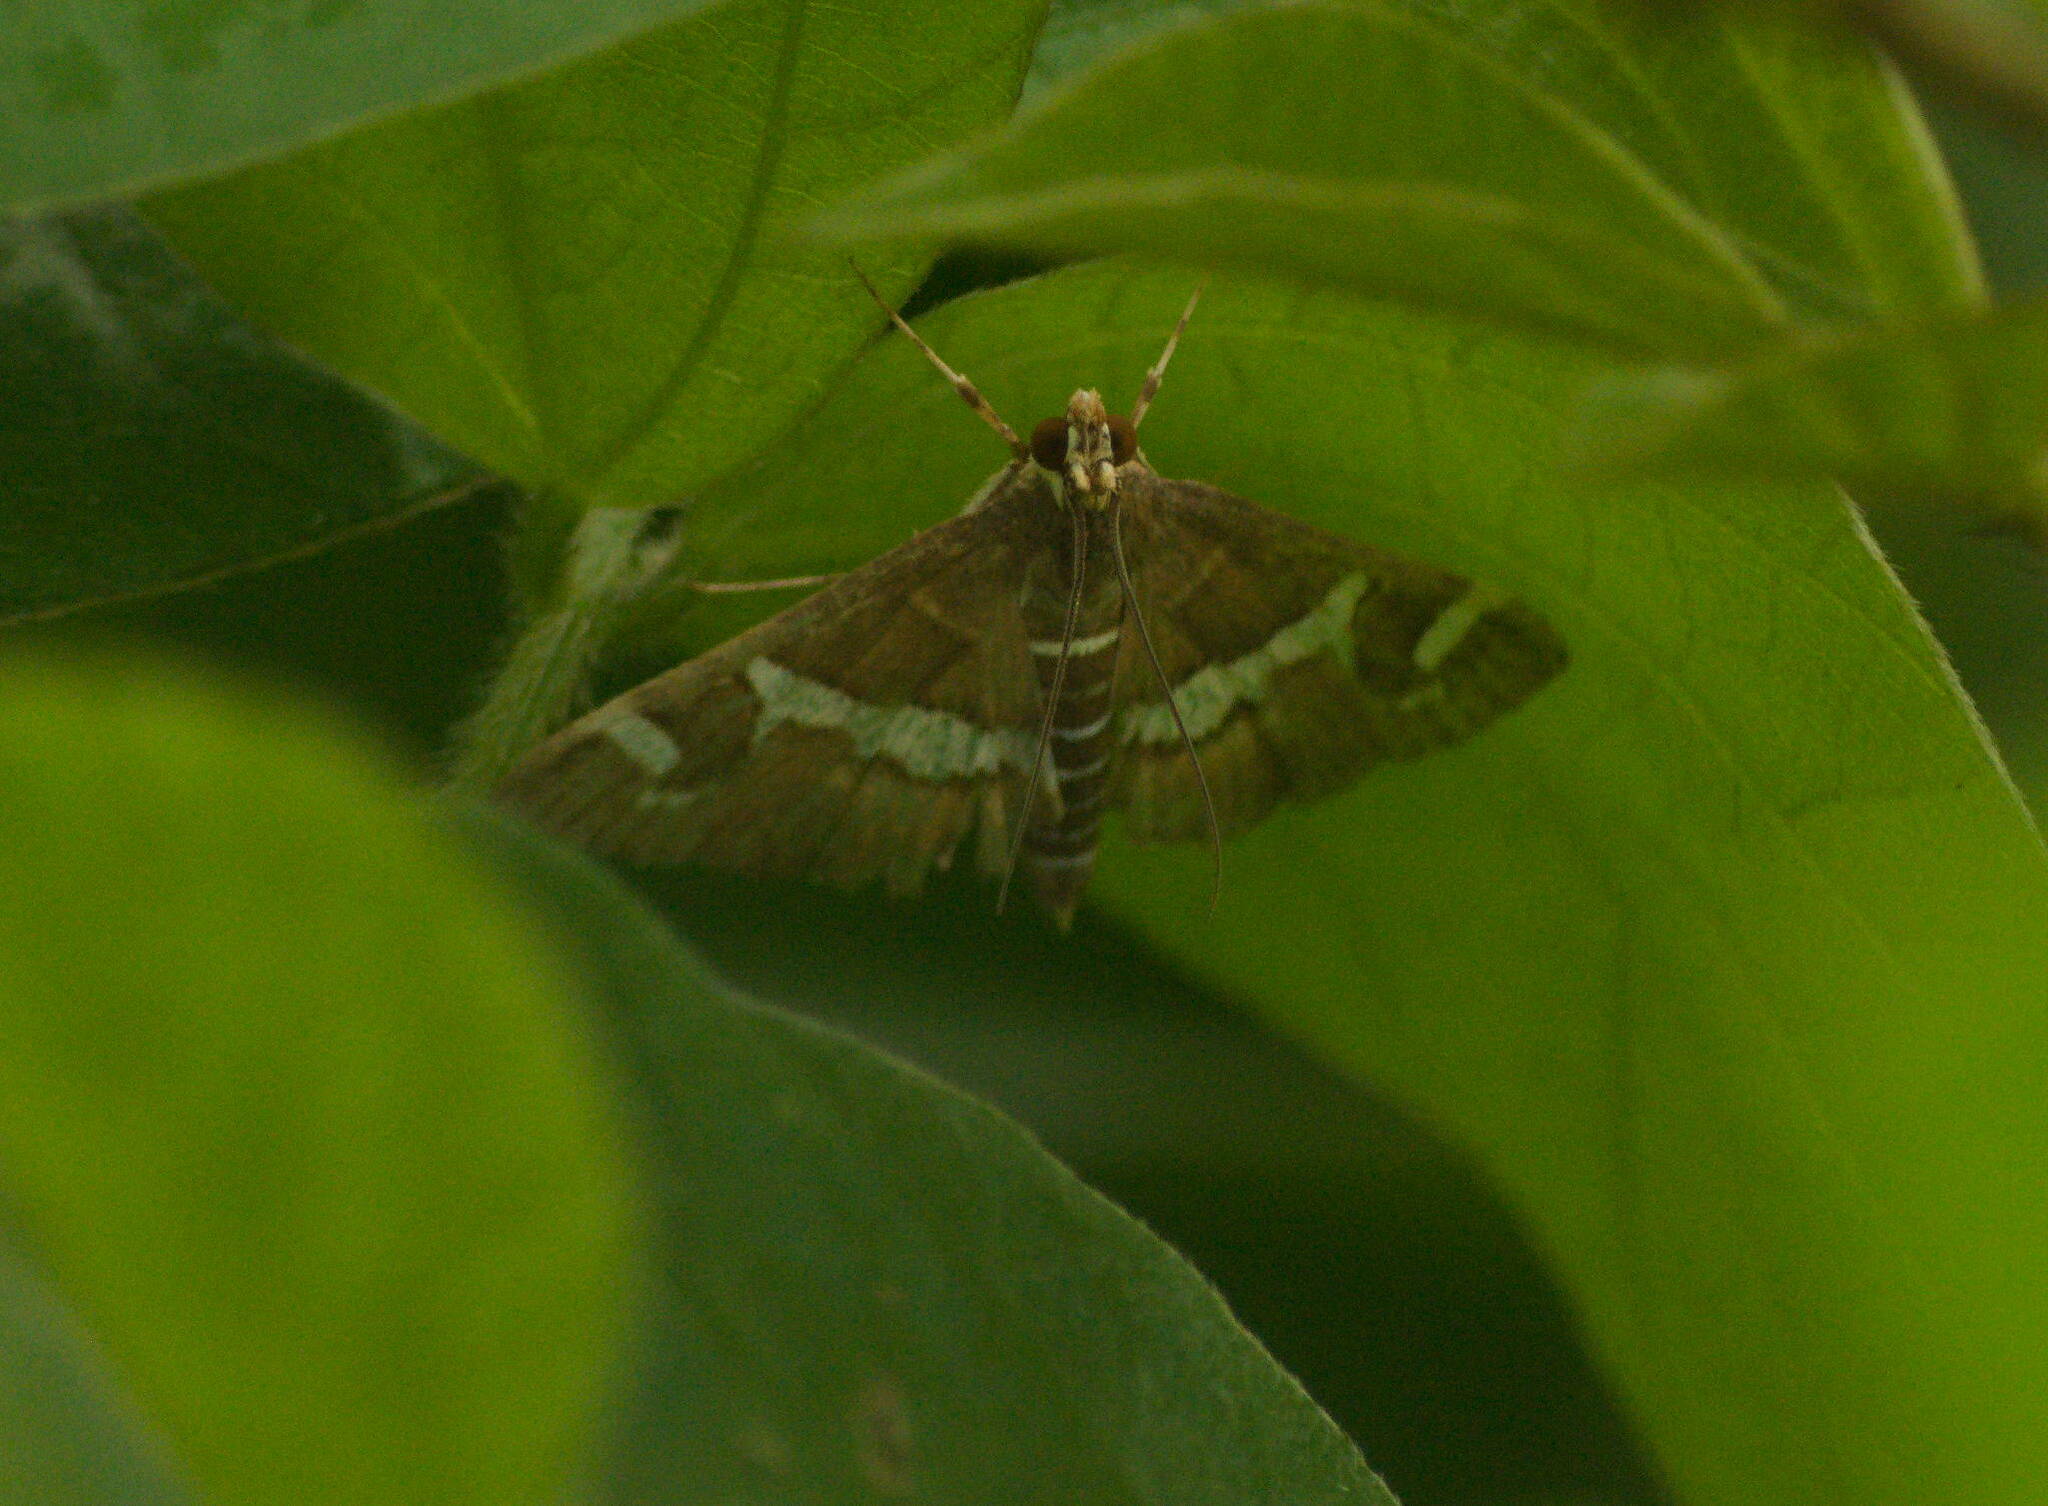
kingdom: Animalia
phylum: Arthropoda
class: Insecta
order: Lepidoptera
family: Crambidae
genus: Spoladea
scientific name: Spoladea recurvalis
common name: Beet webworm moth
